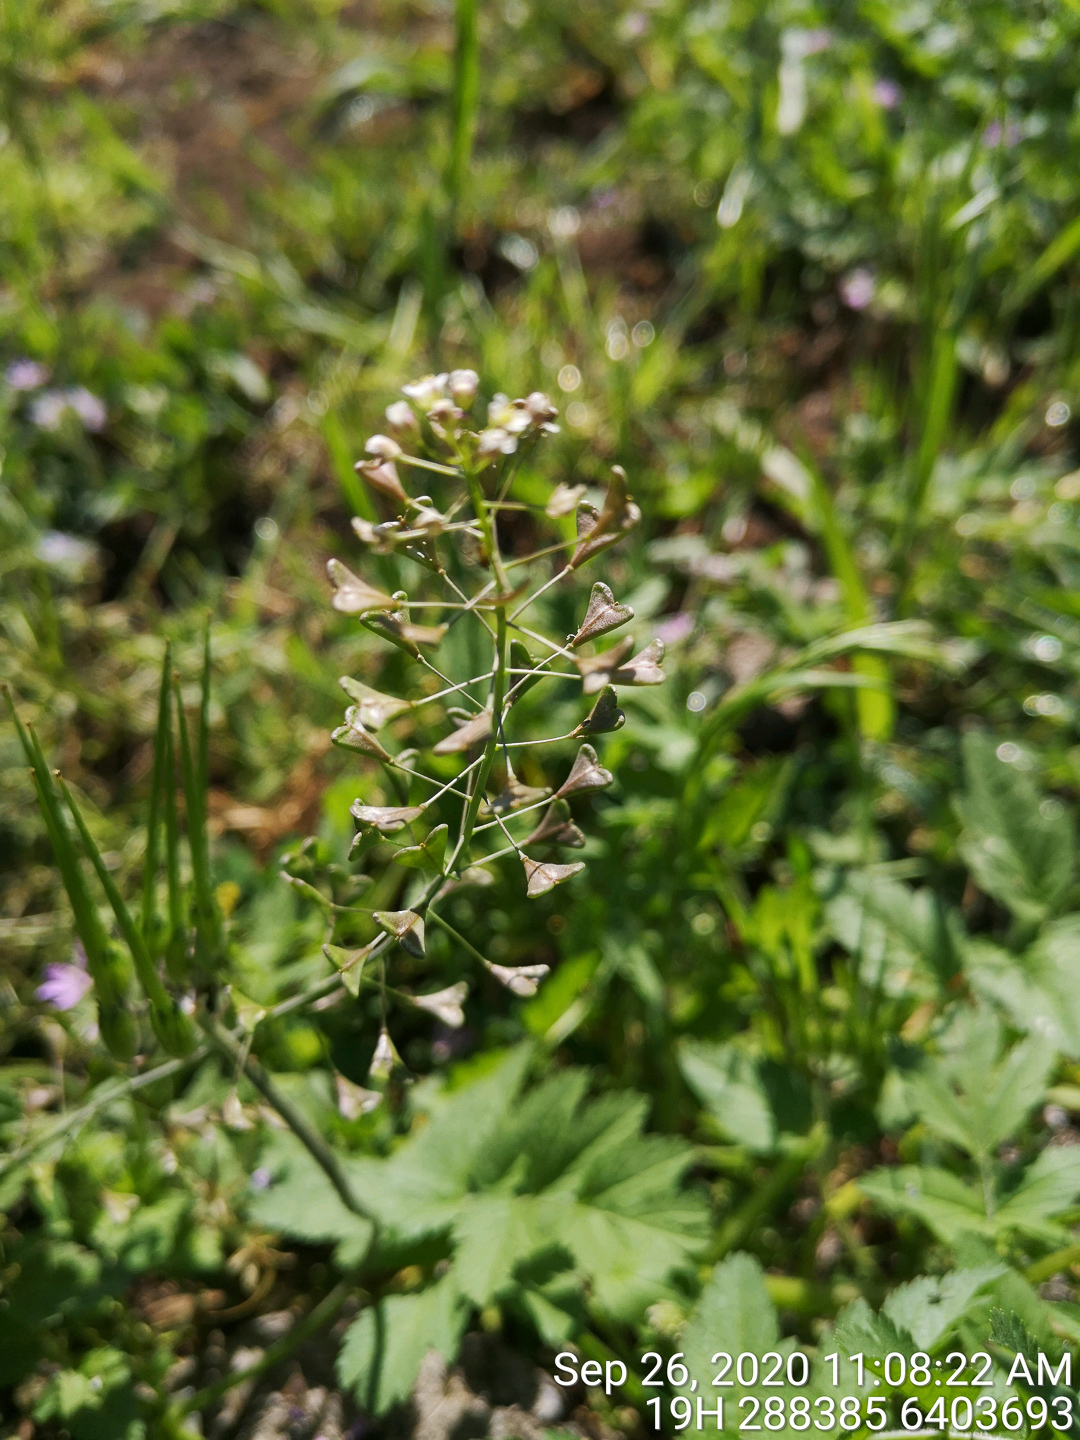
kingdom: Plantae
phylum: Tracheophyta
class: Magnoliopsida
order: Brassicales
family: Brassicaceae
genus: Capsella
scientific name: Capsella bursa-pastoris
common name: Shepherd's purse
